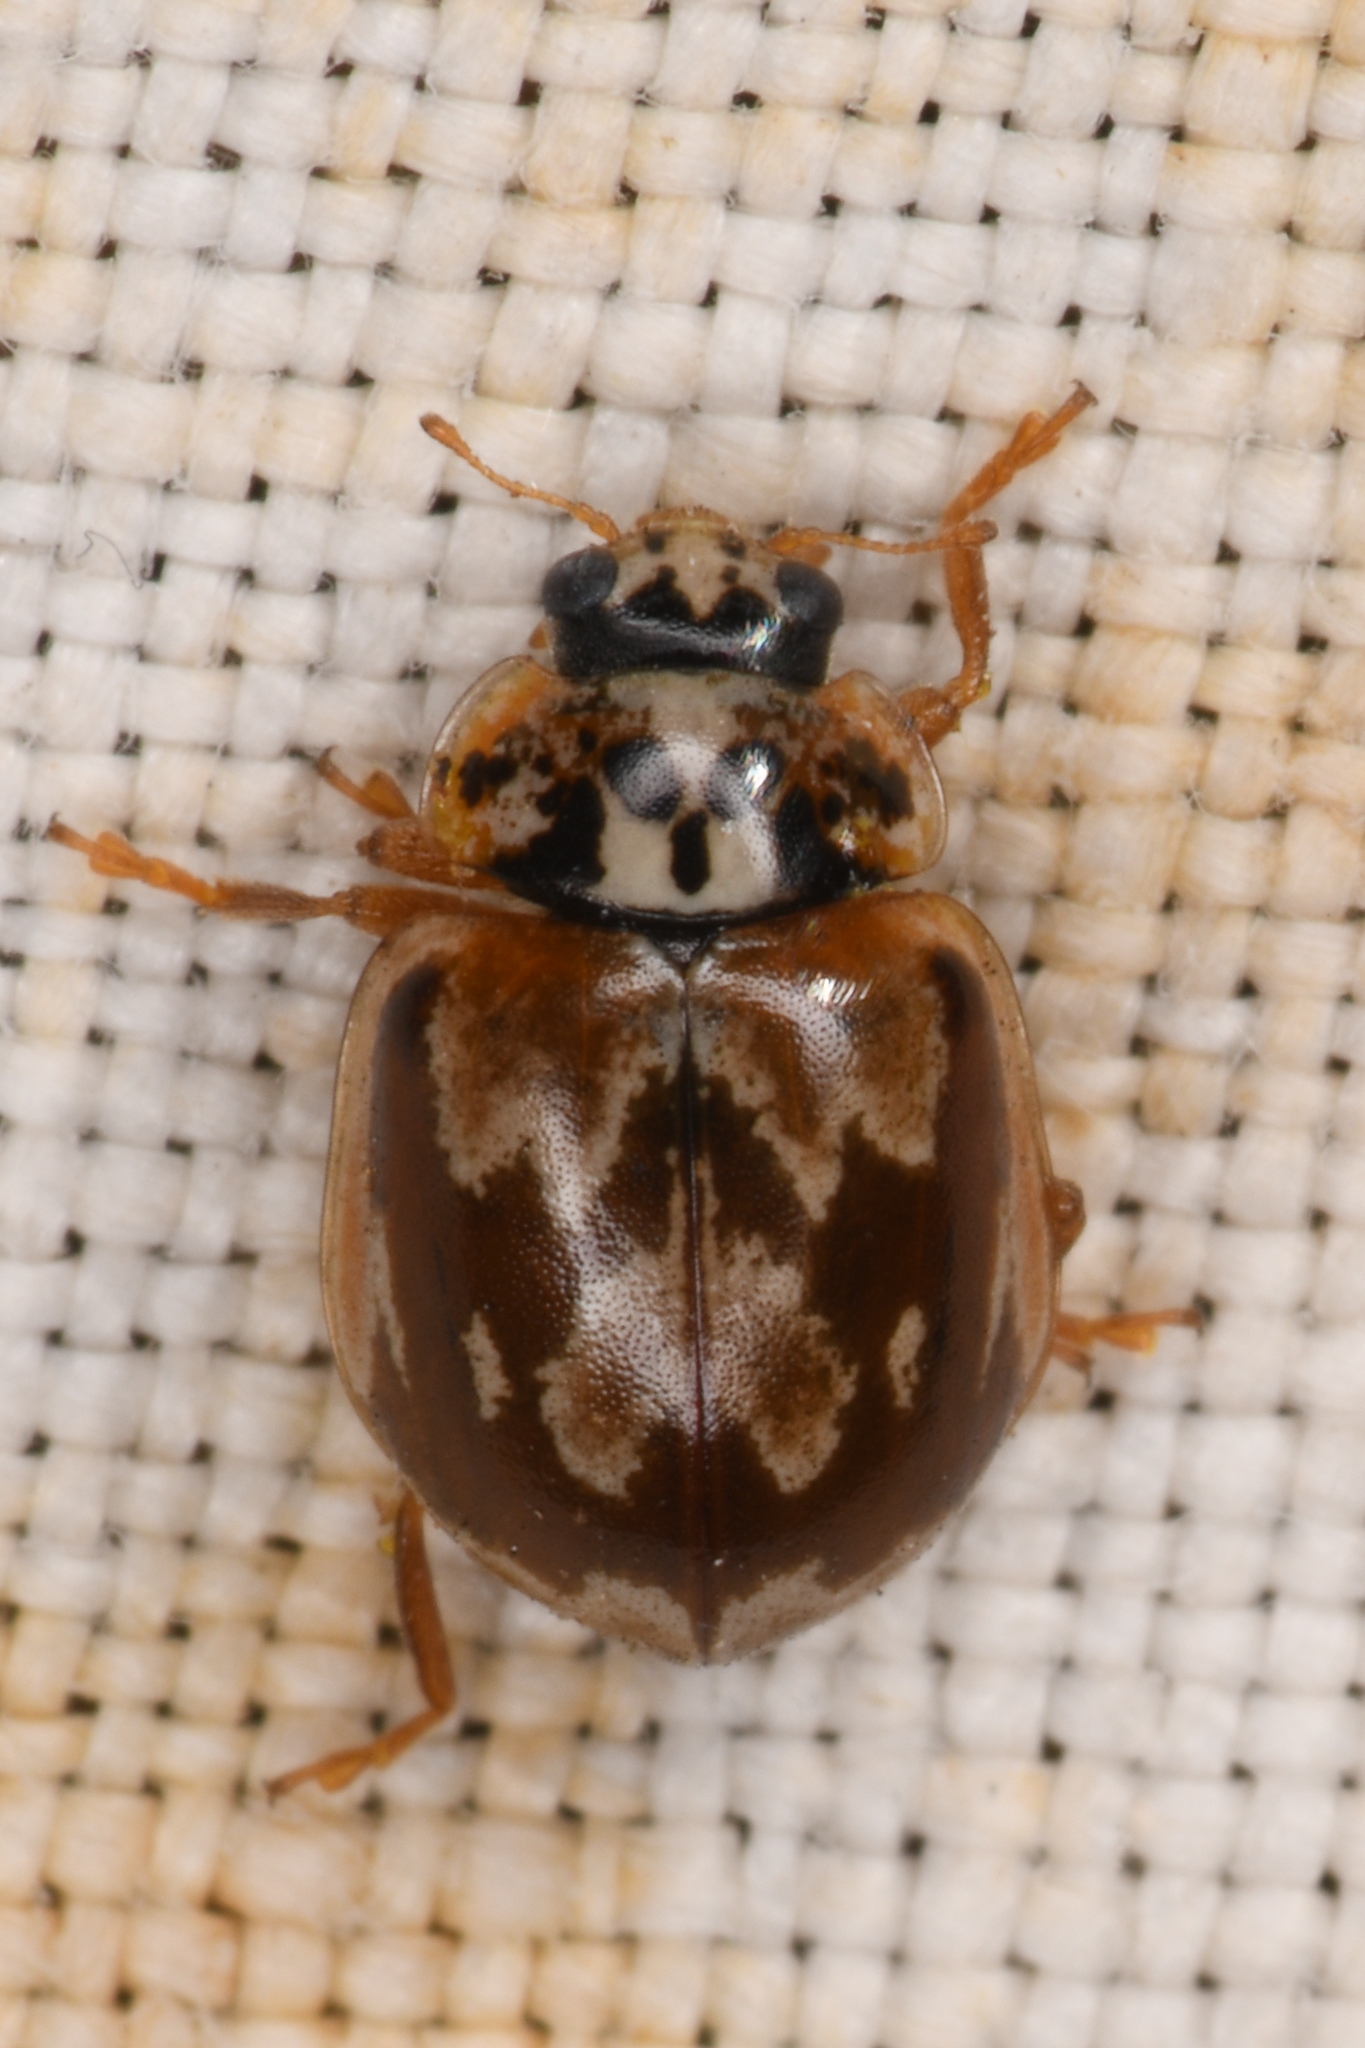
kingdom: Animalia
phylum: Arthropoda
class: Insecta
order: Coleoptera
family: Coccinellidae
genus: Mulsantina
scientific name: Mulsantina picta
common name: Painted ladybird
